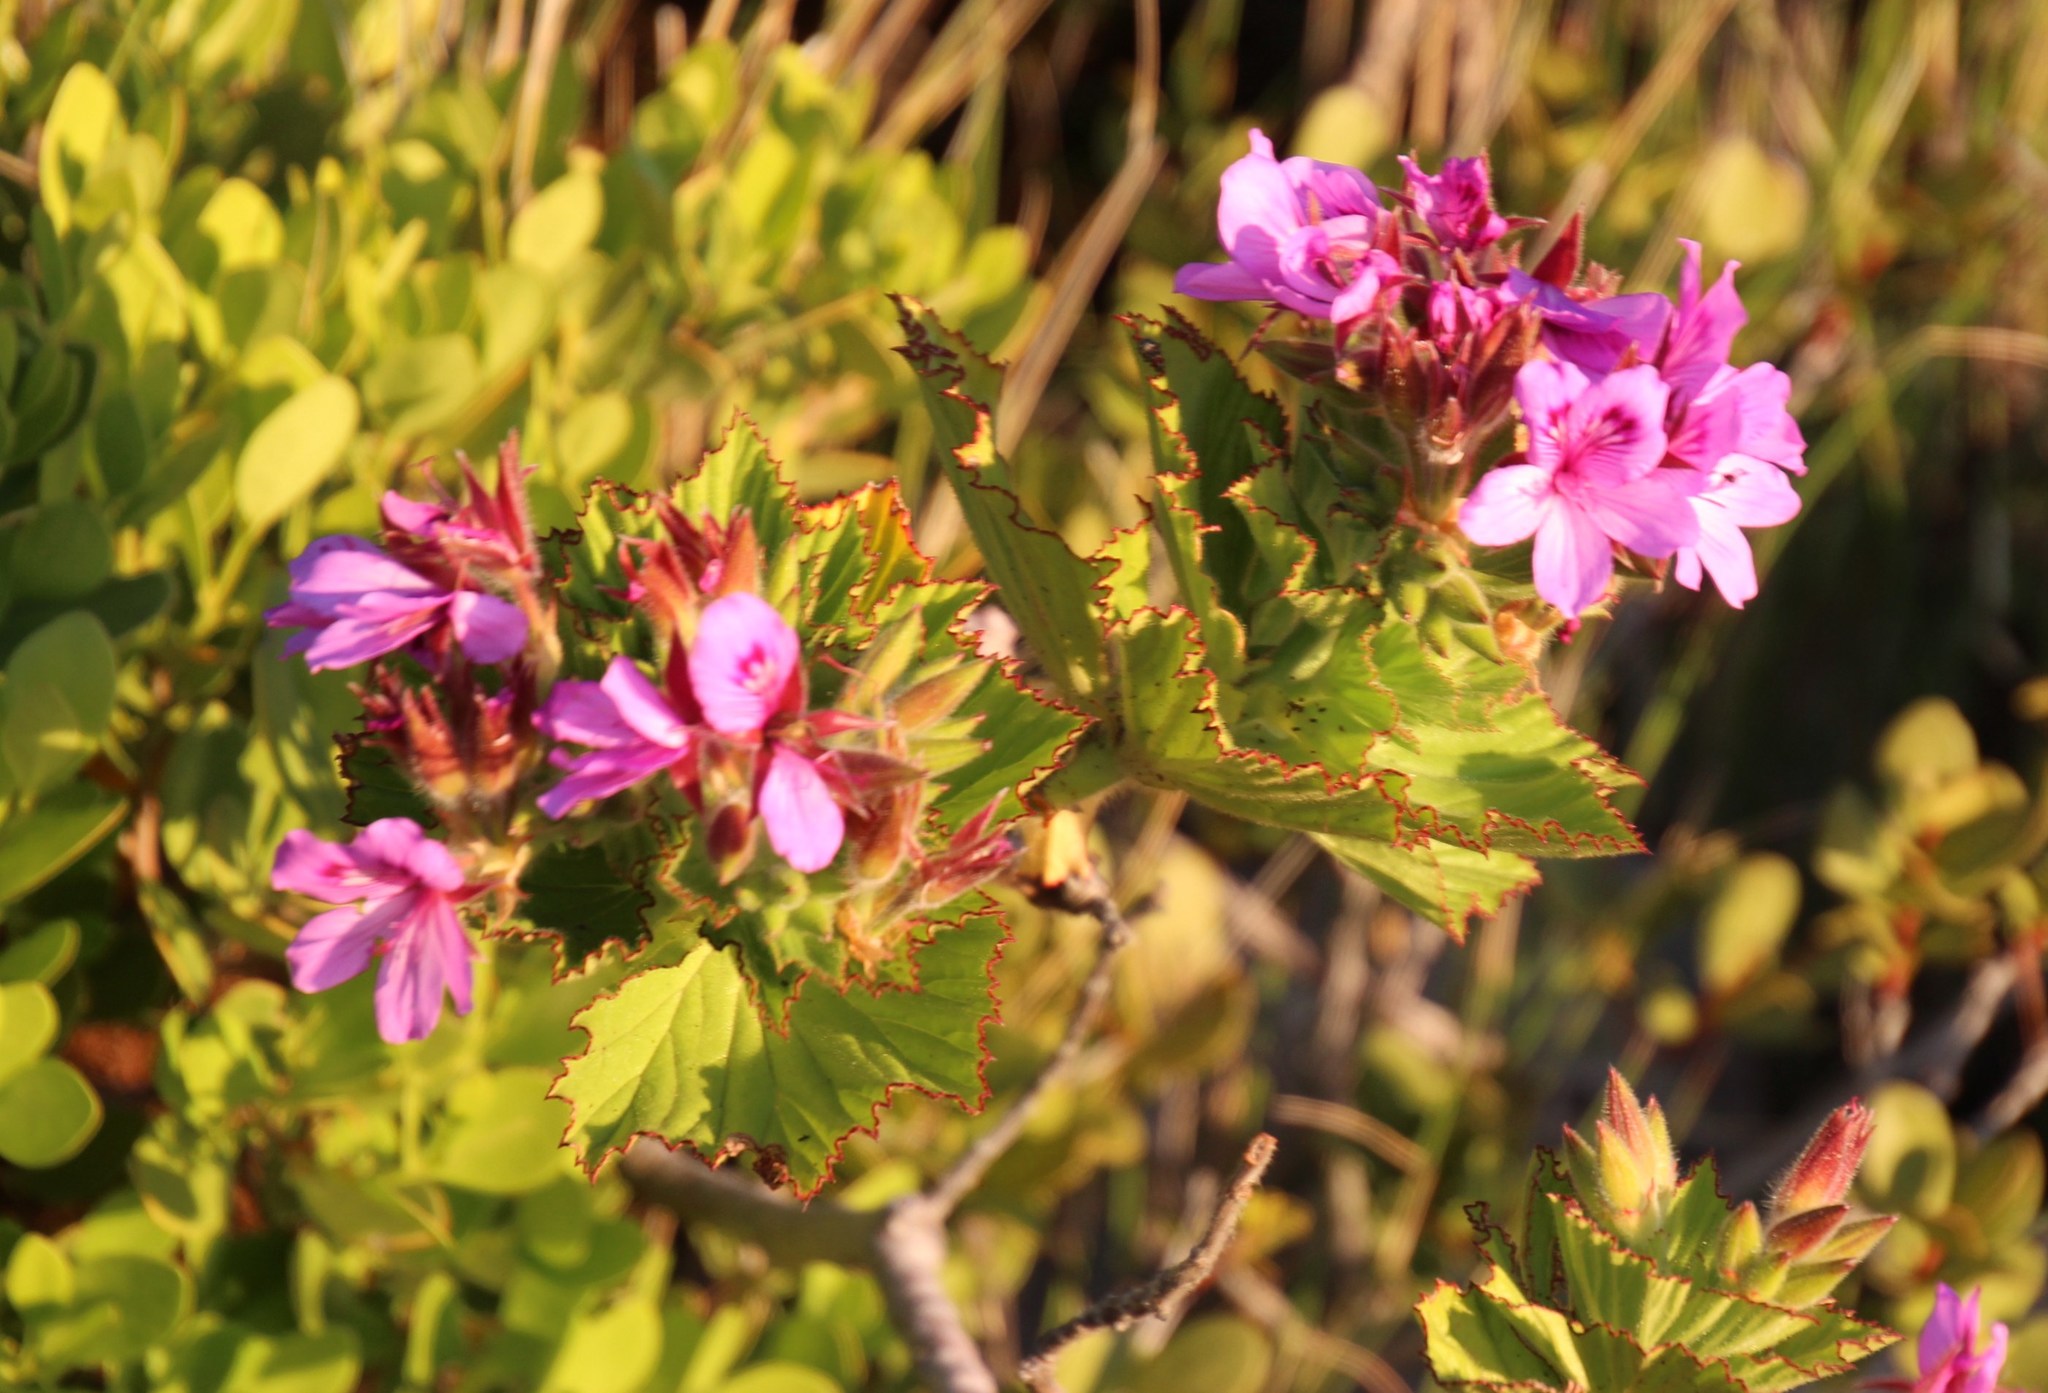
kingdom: Plantae
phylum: Tracheophyta
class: Magnoliopsida
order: Geraniales
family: Geraniaceae
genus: Pelargonium
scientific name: Pelargonium cucullatum
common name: Tree pelargonium
